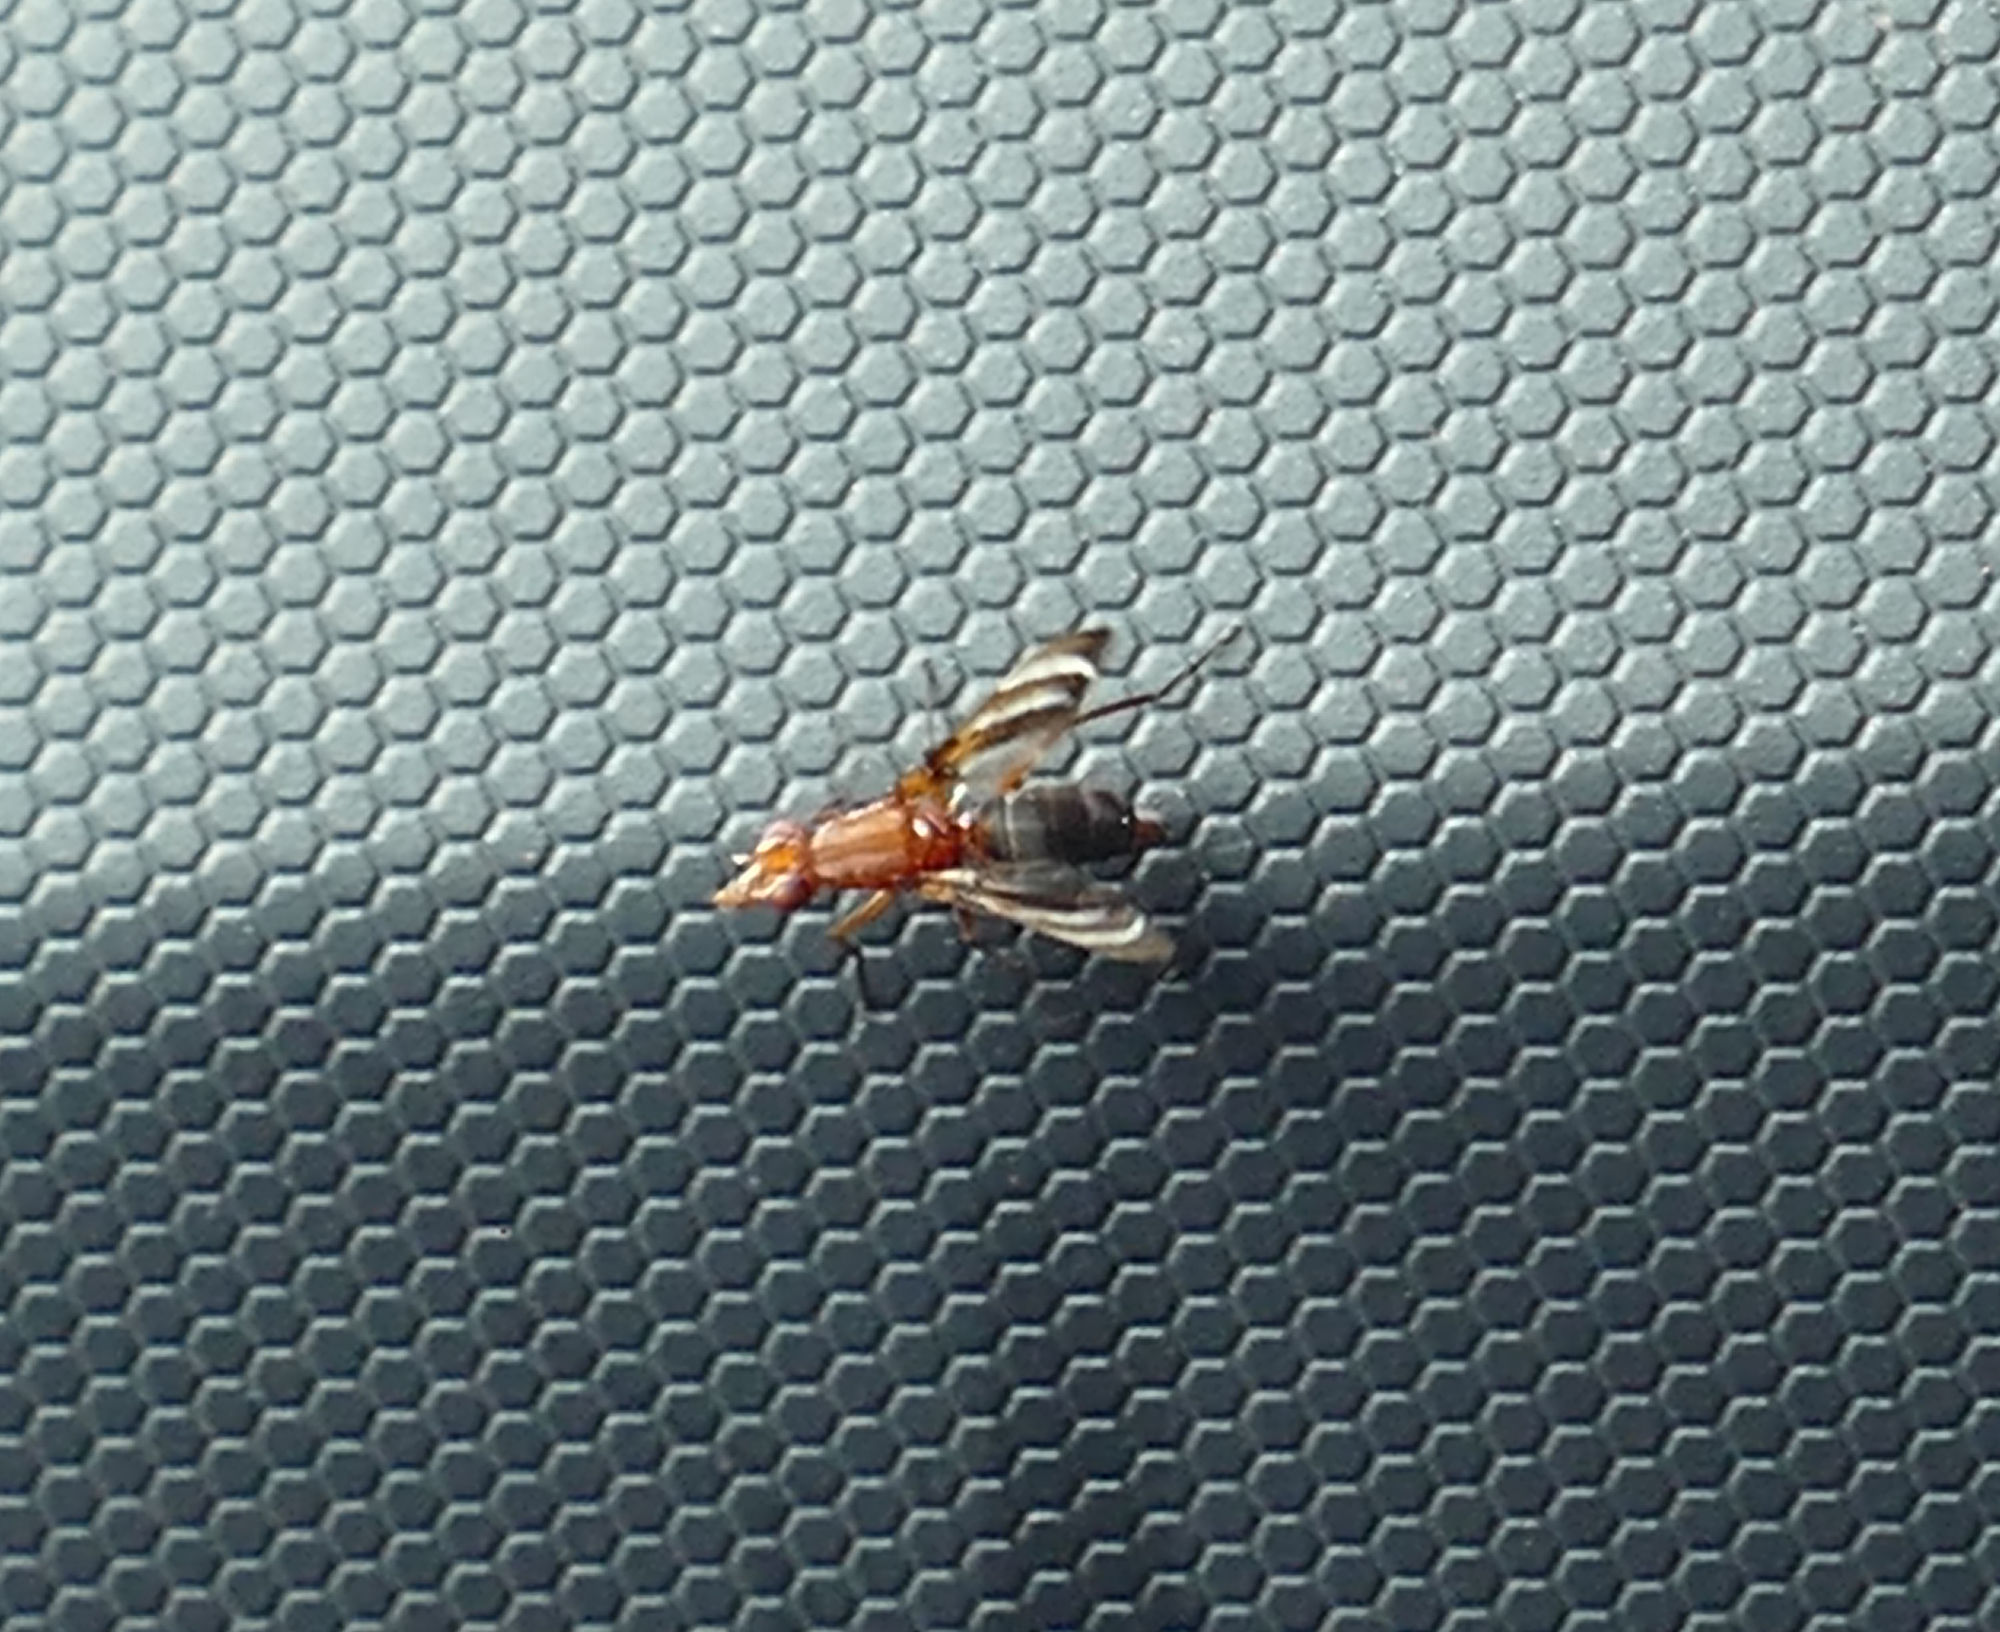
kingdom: Animalia
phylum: Arthropoda
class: Insecta
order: Diptera
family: Ulidiidae
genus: Tritoxa
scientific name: Tritoxa incurva
